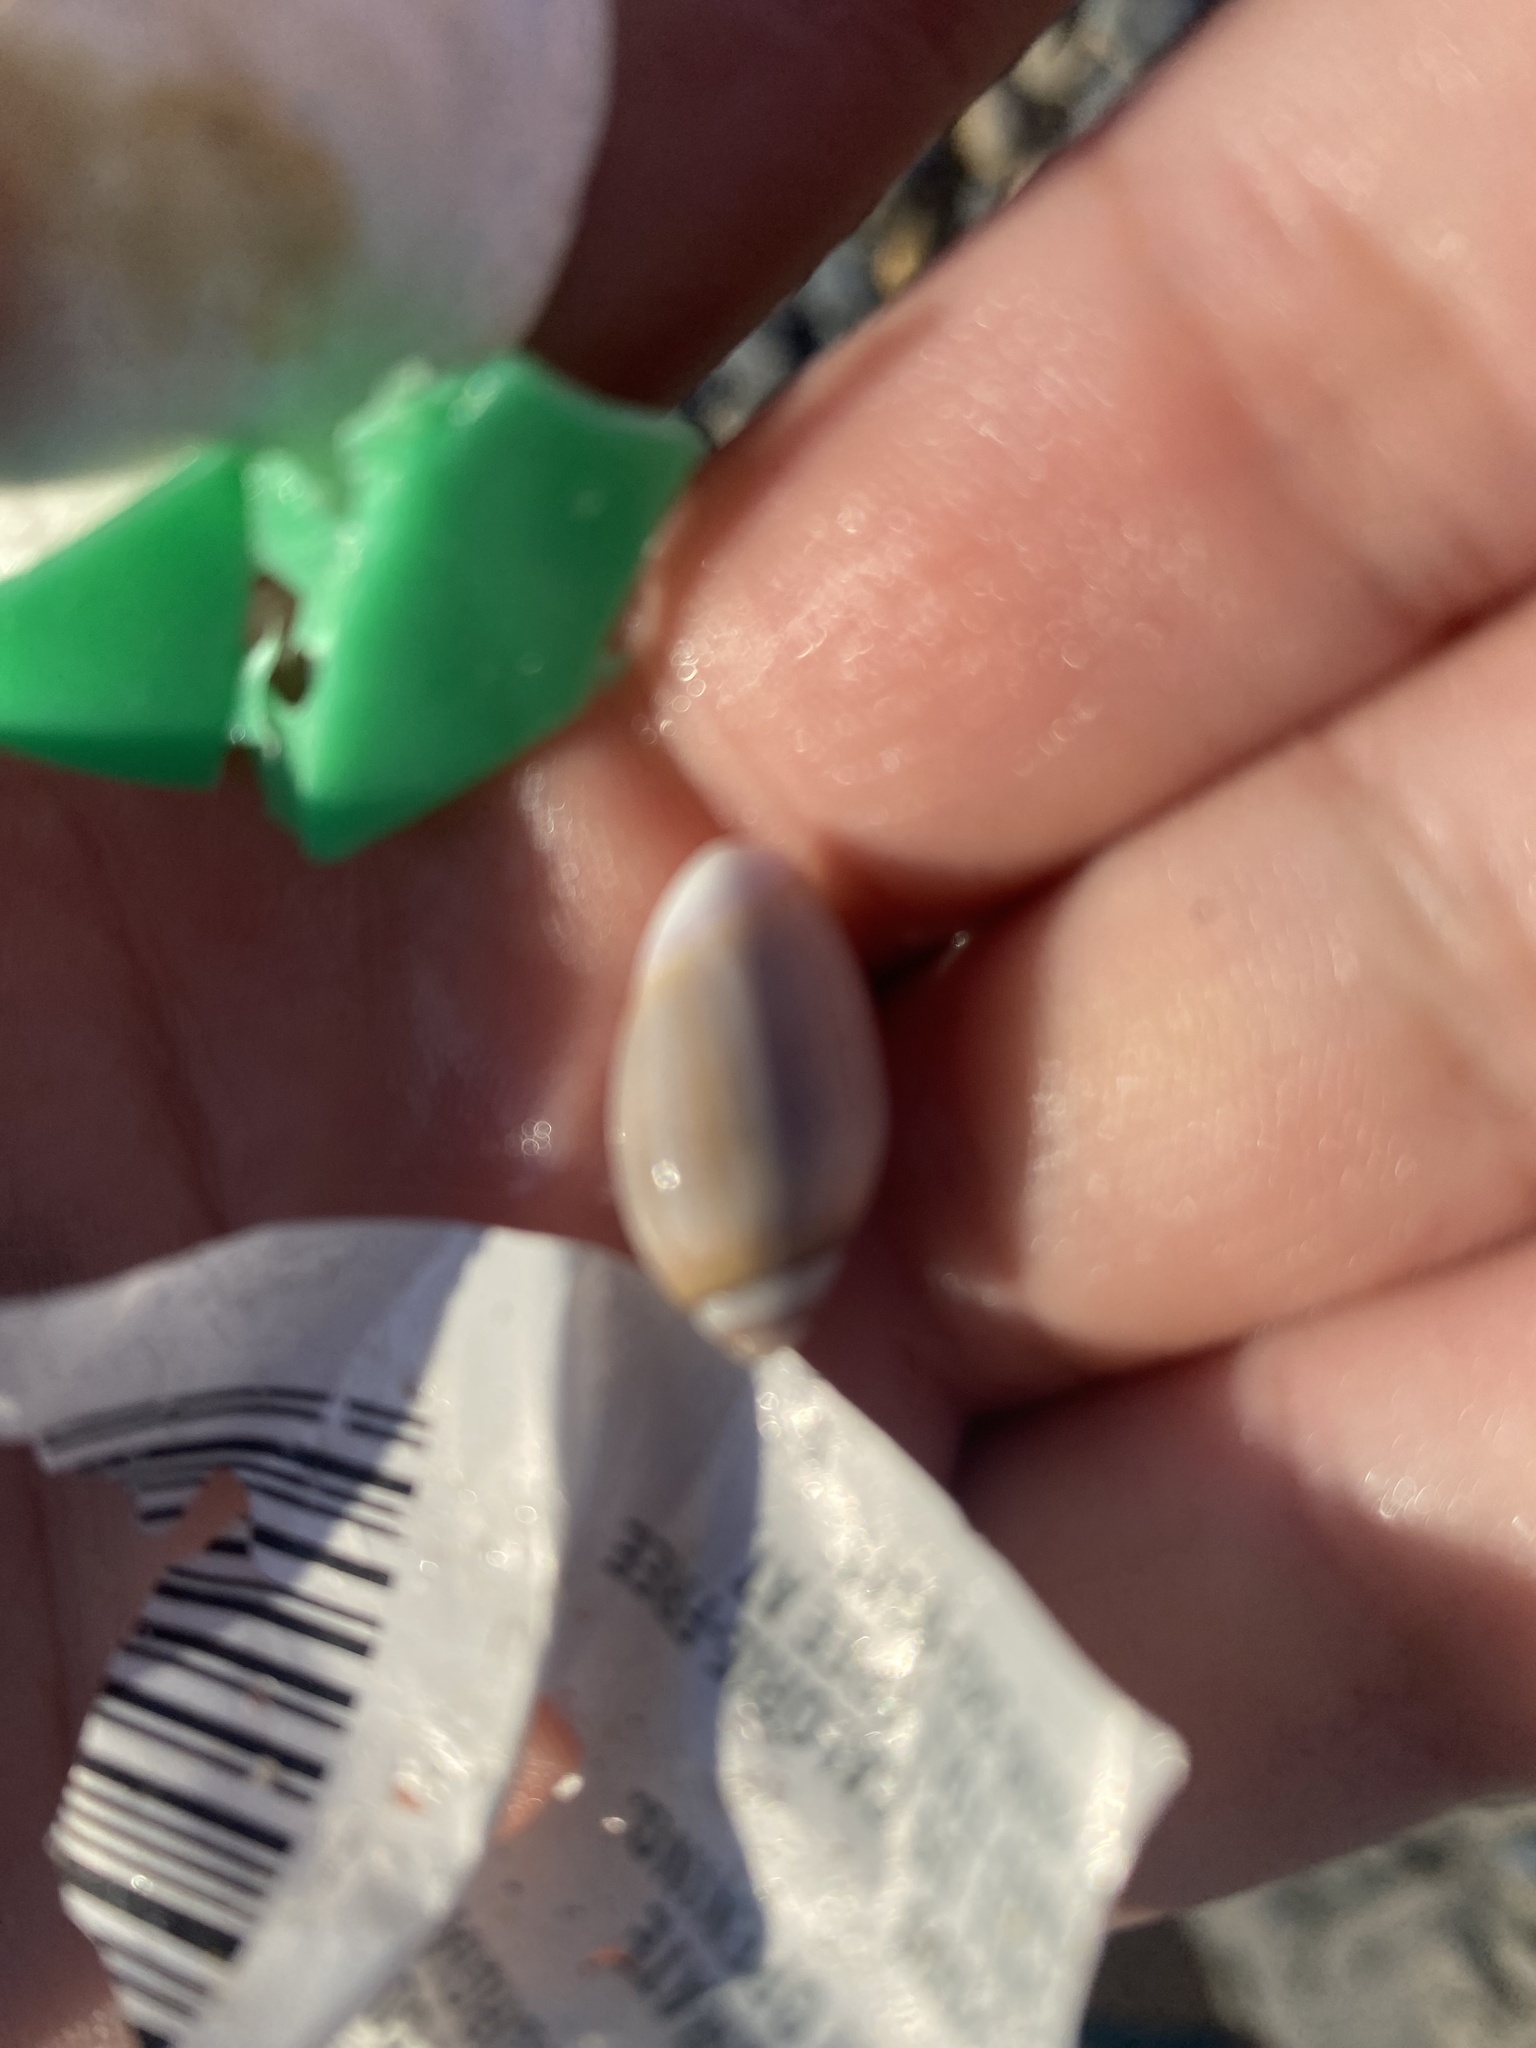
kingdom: Animalia
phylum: Mollusca
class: Gastropoda
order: Neogastropoda
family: Olividae
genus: Callianax
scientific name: Callianax biplicata
